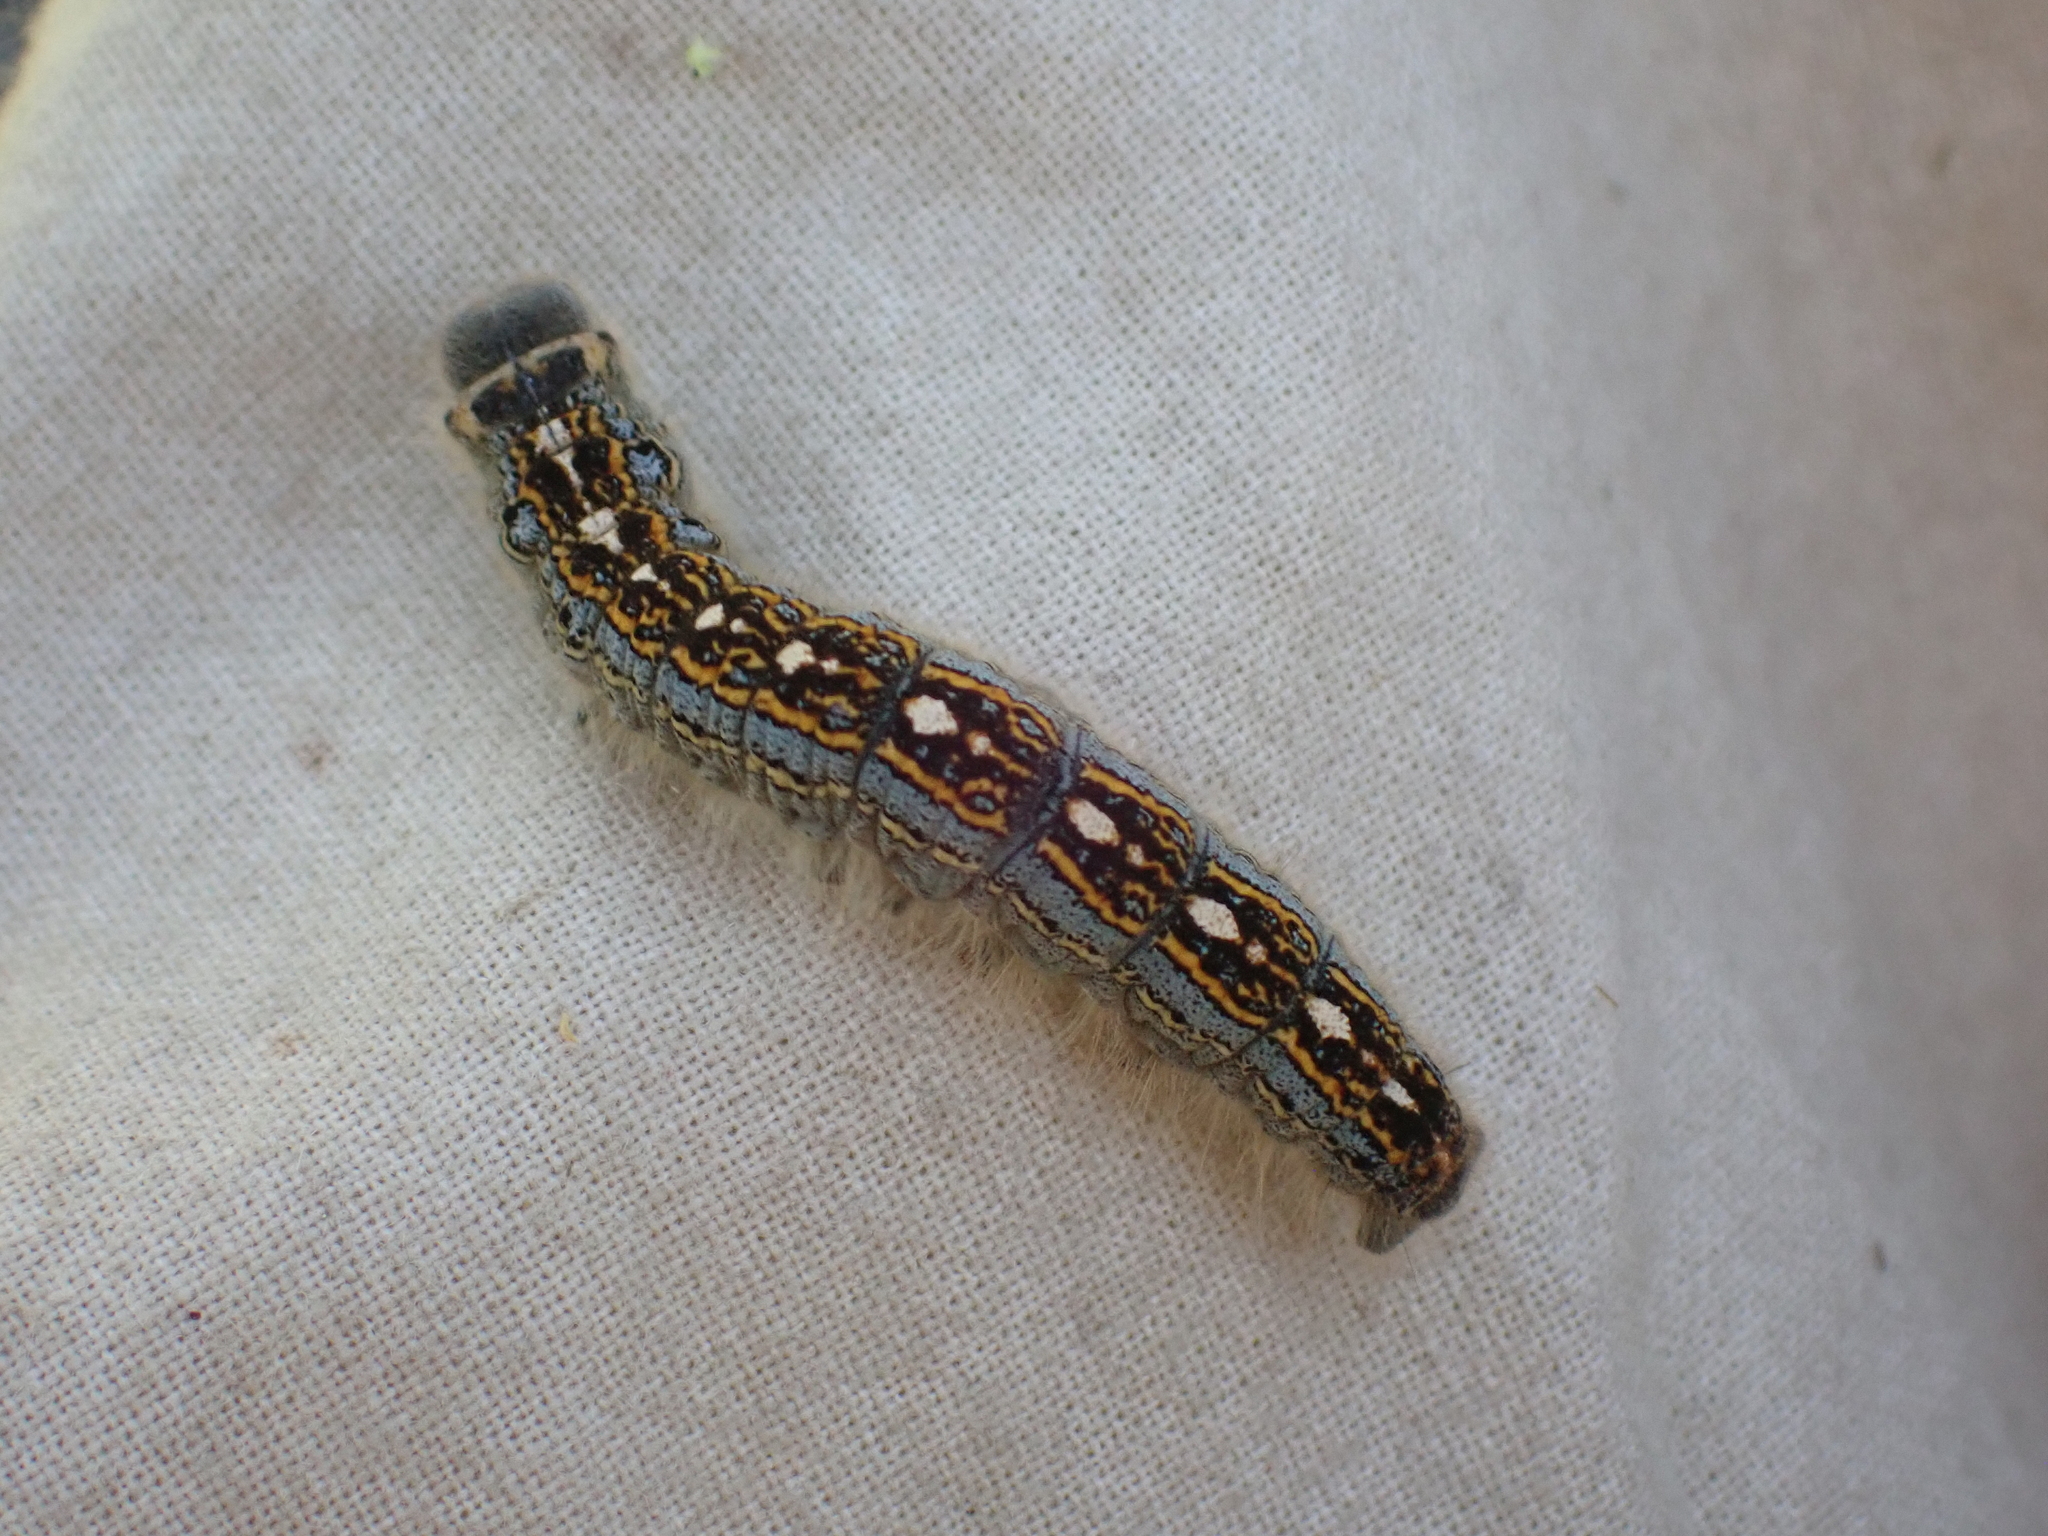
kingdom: Animalia
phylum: Arthropoda
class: Insecta
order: Lepidoptera
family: Lasiocampidae
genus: Malacosoma
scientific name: Malacosoma disstria
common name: Forest tent caterpillar
